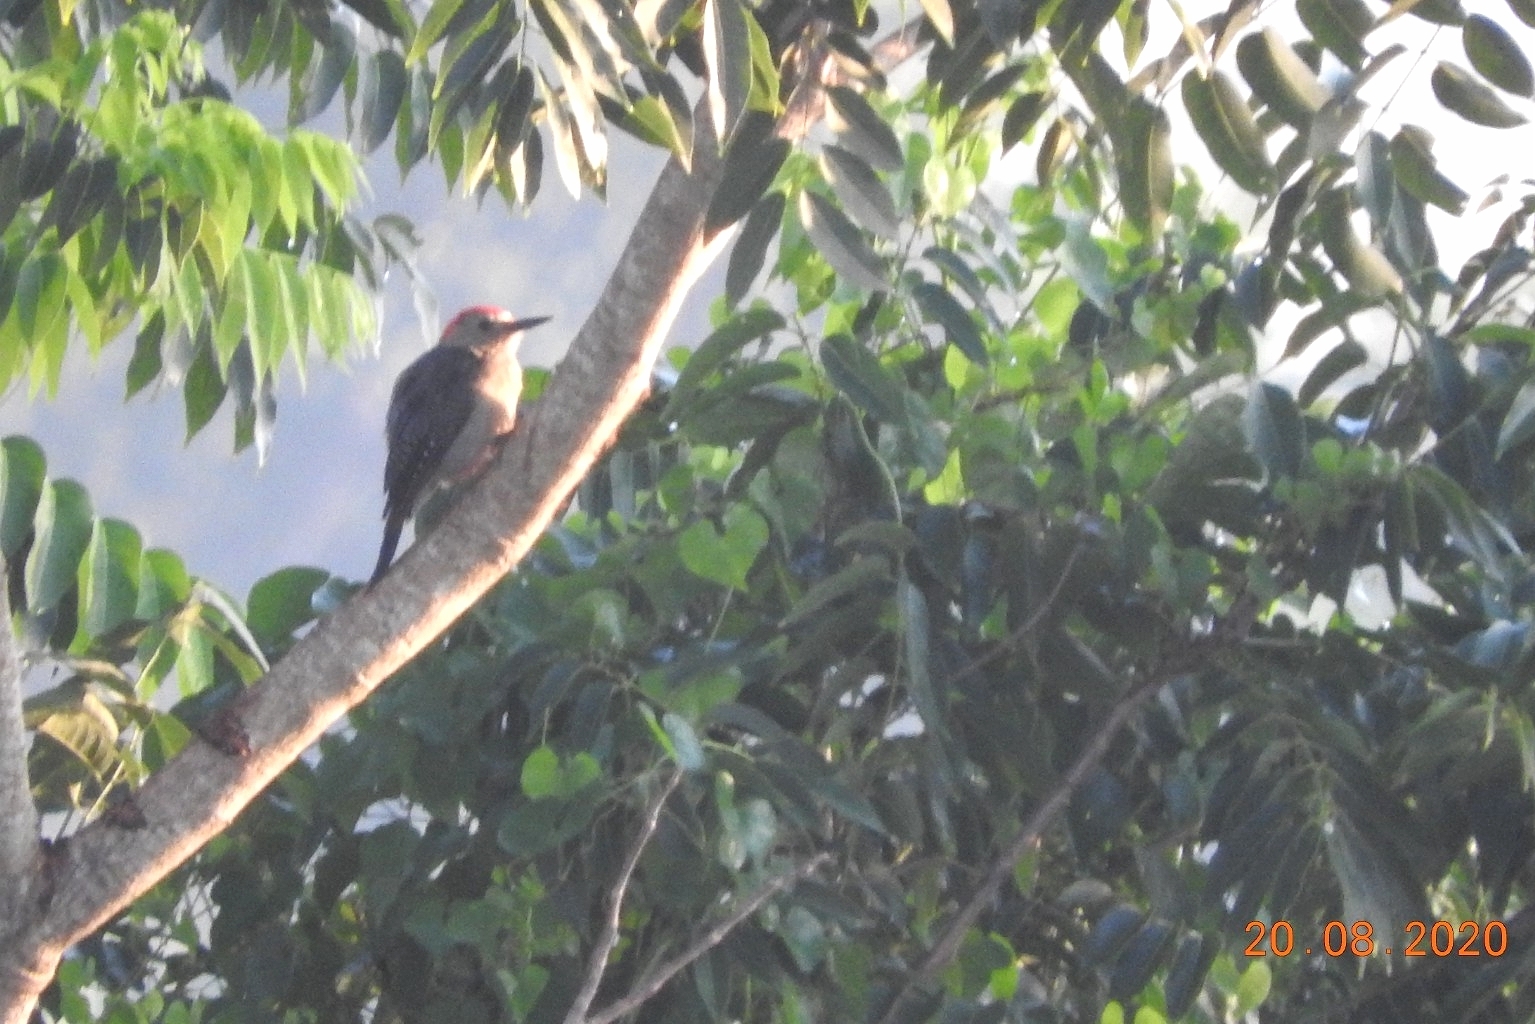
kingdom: Animalia
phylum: Chordata
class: Aves
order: Piciformes
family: Picidae
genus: Melanerpes
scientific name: Melanerpes aurifrons
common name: Golden-fronted woodpecker
